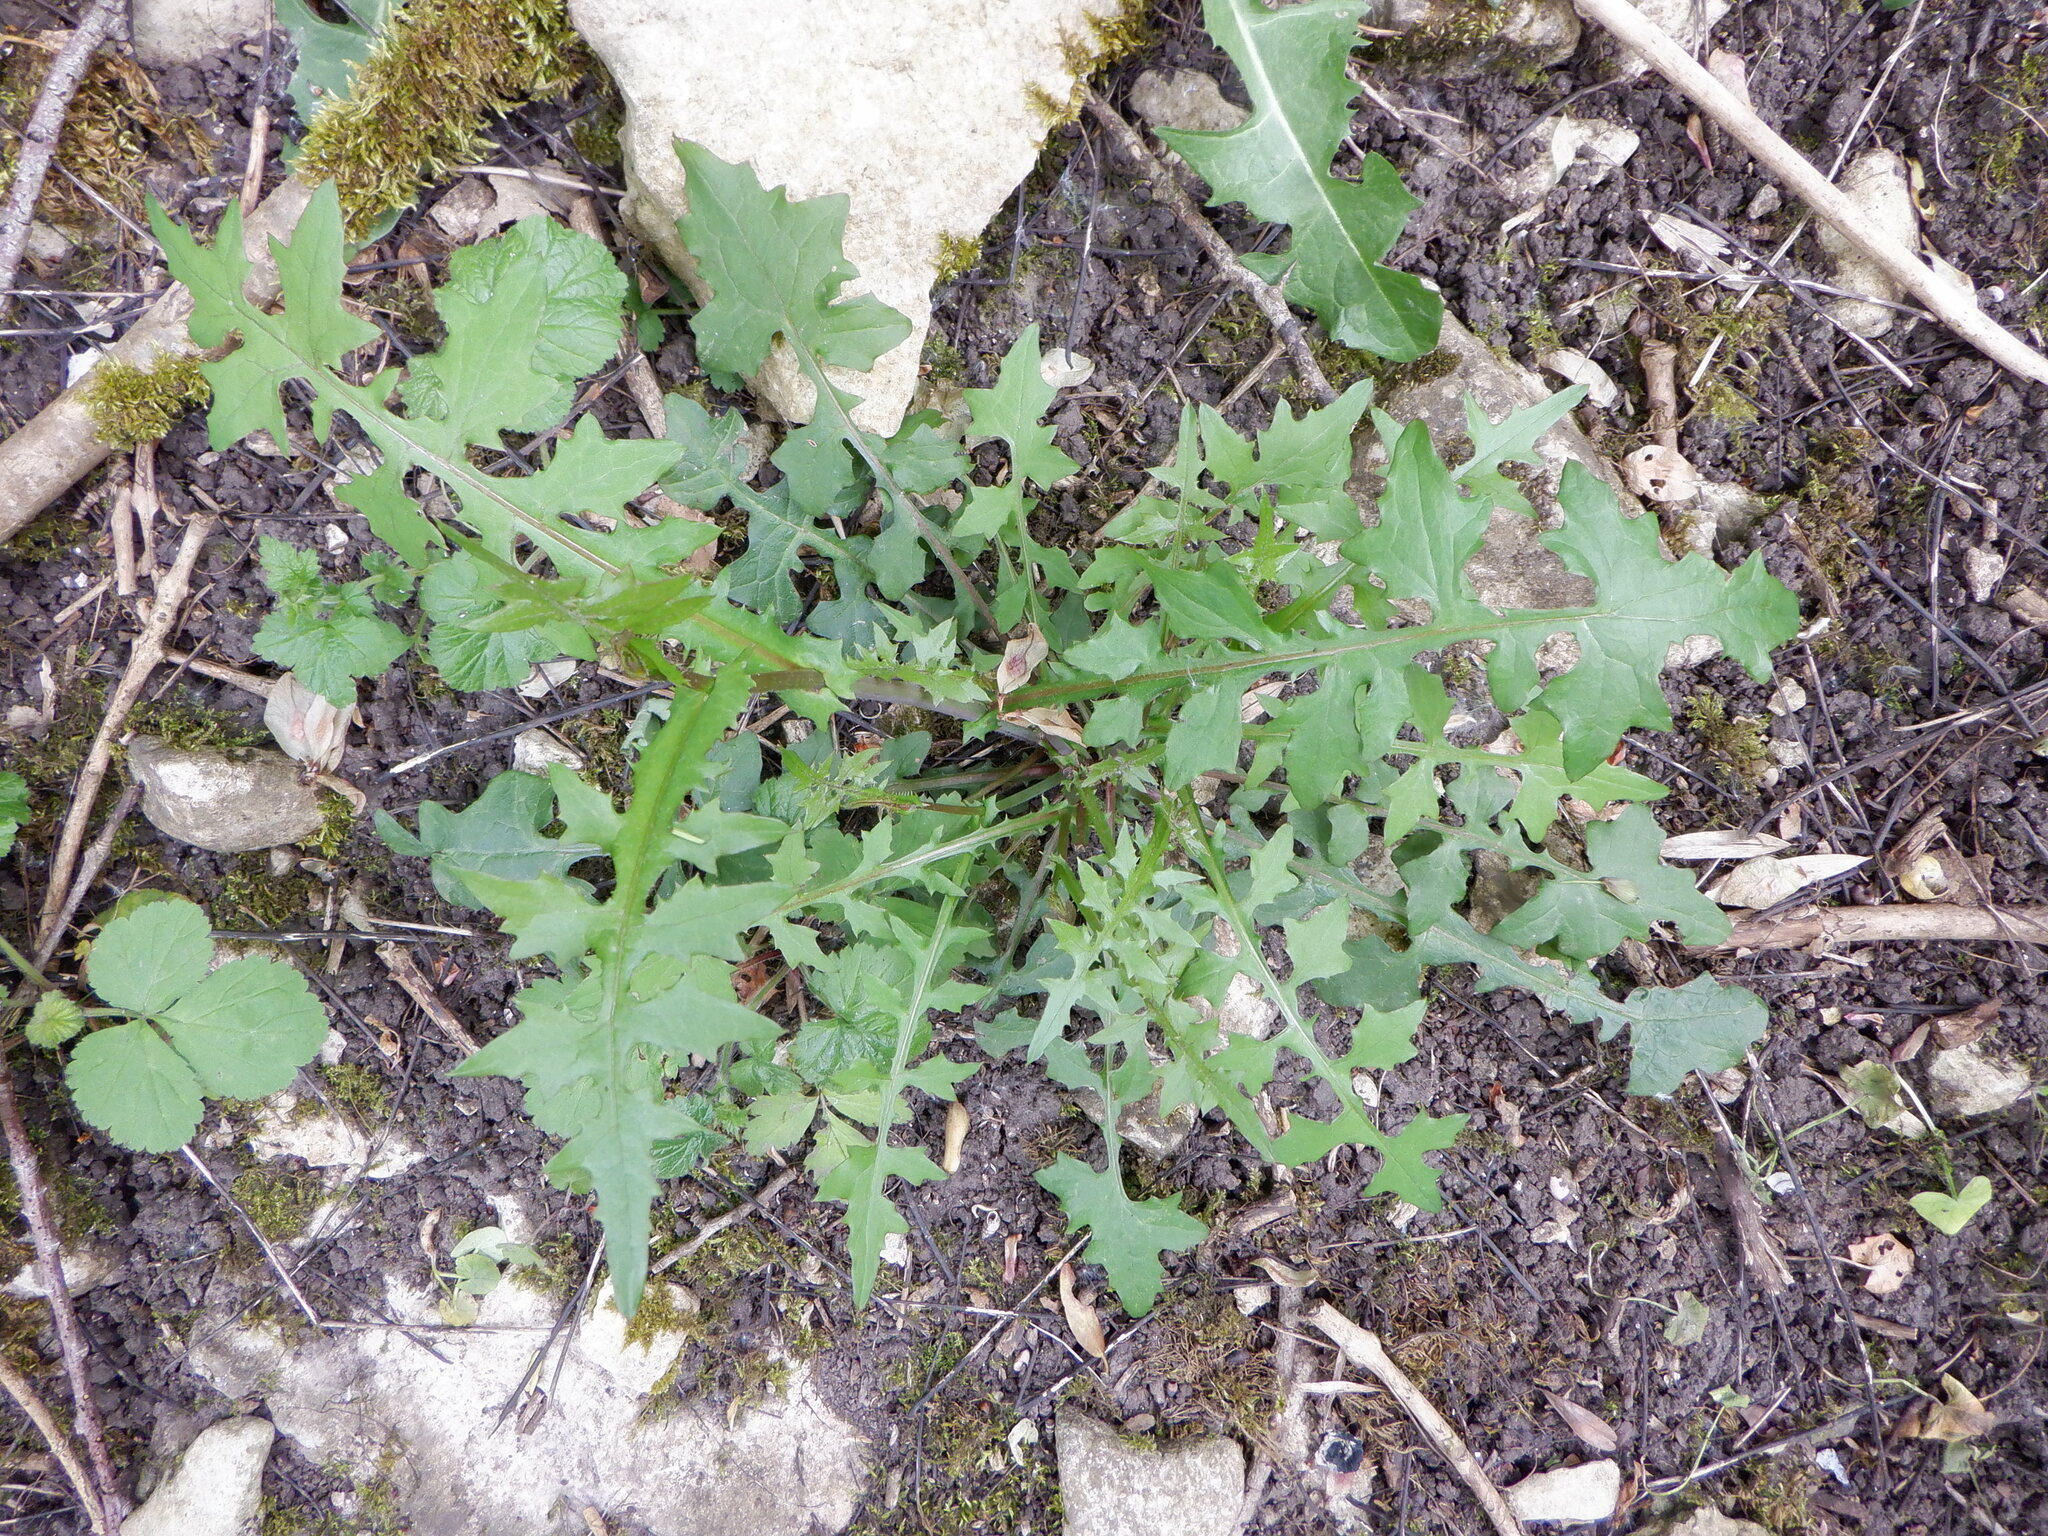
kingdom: Plantae
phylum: Tracheophyta
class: Magnoliopsida
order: Asterales
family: Asteraceae
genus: Mycelis
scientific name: Mycelis muralis
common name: Wall lettuce
